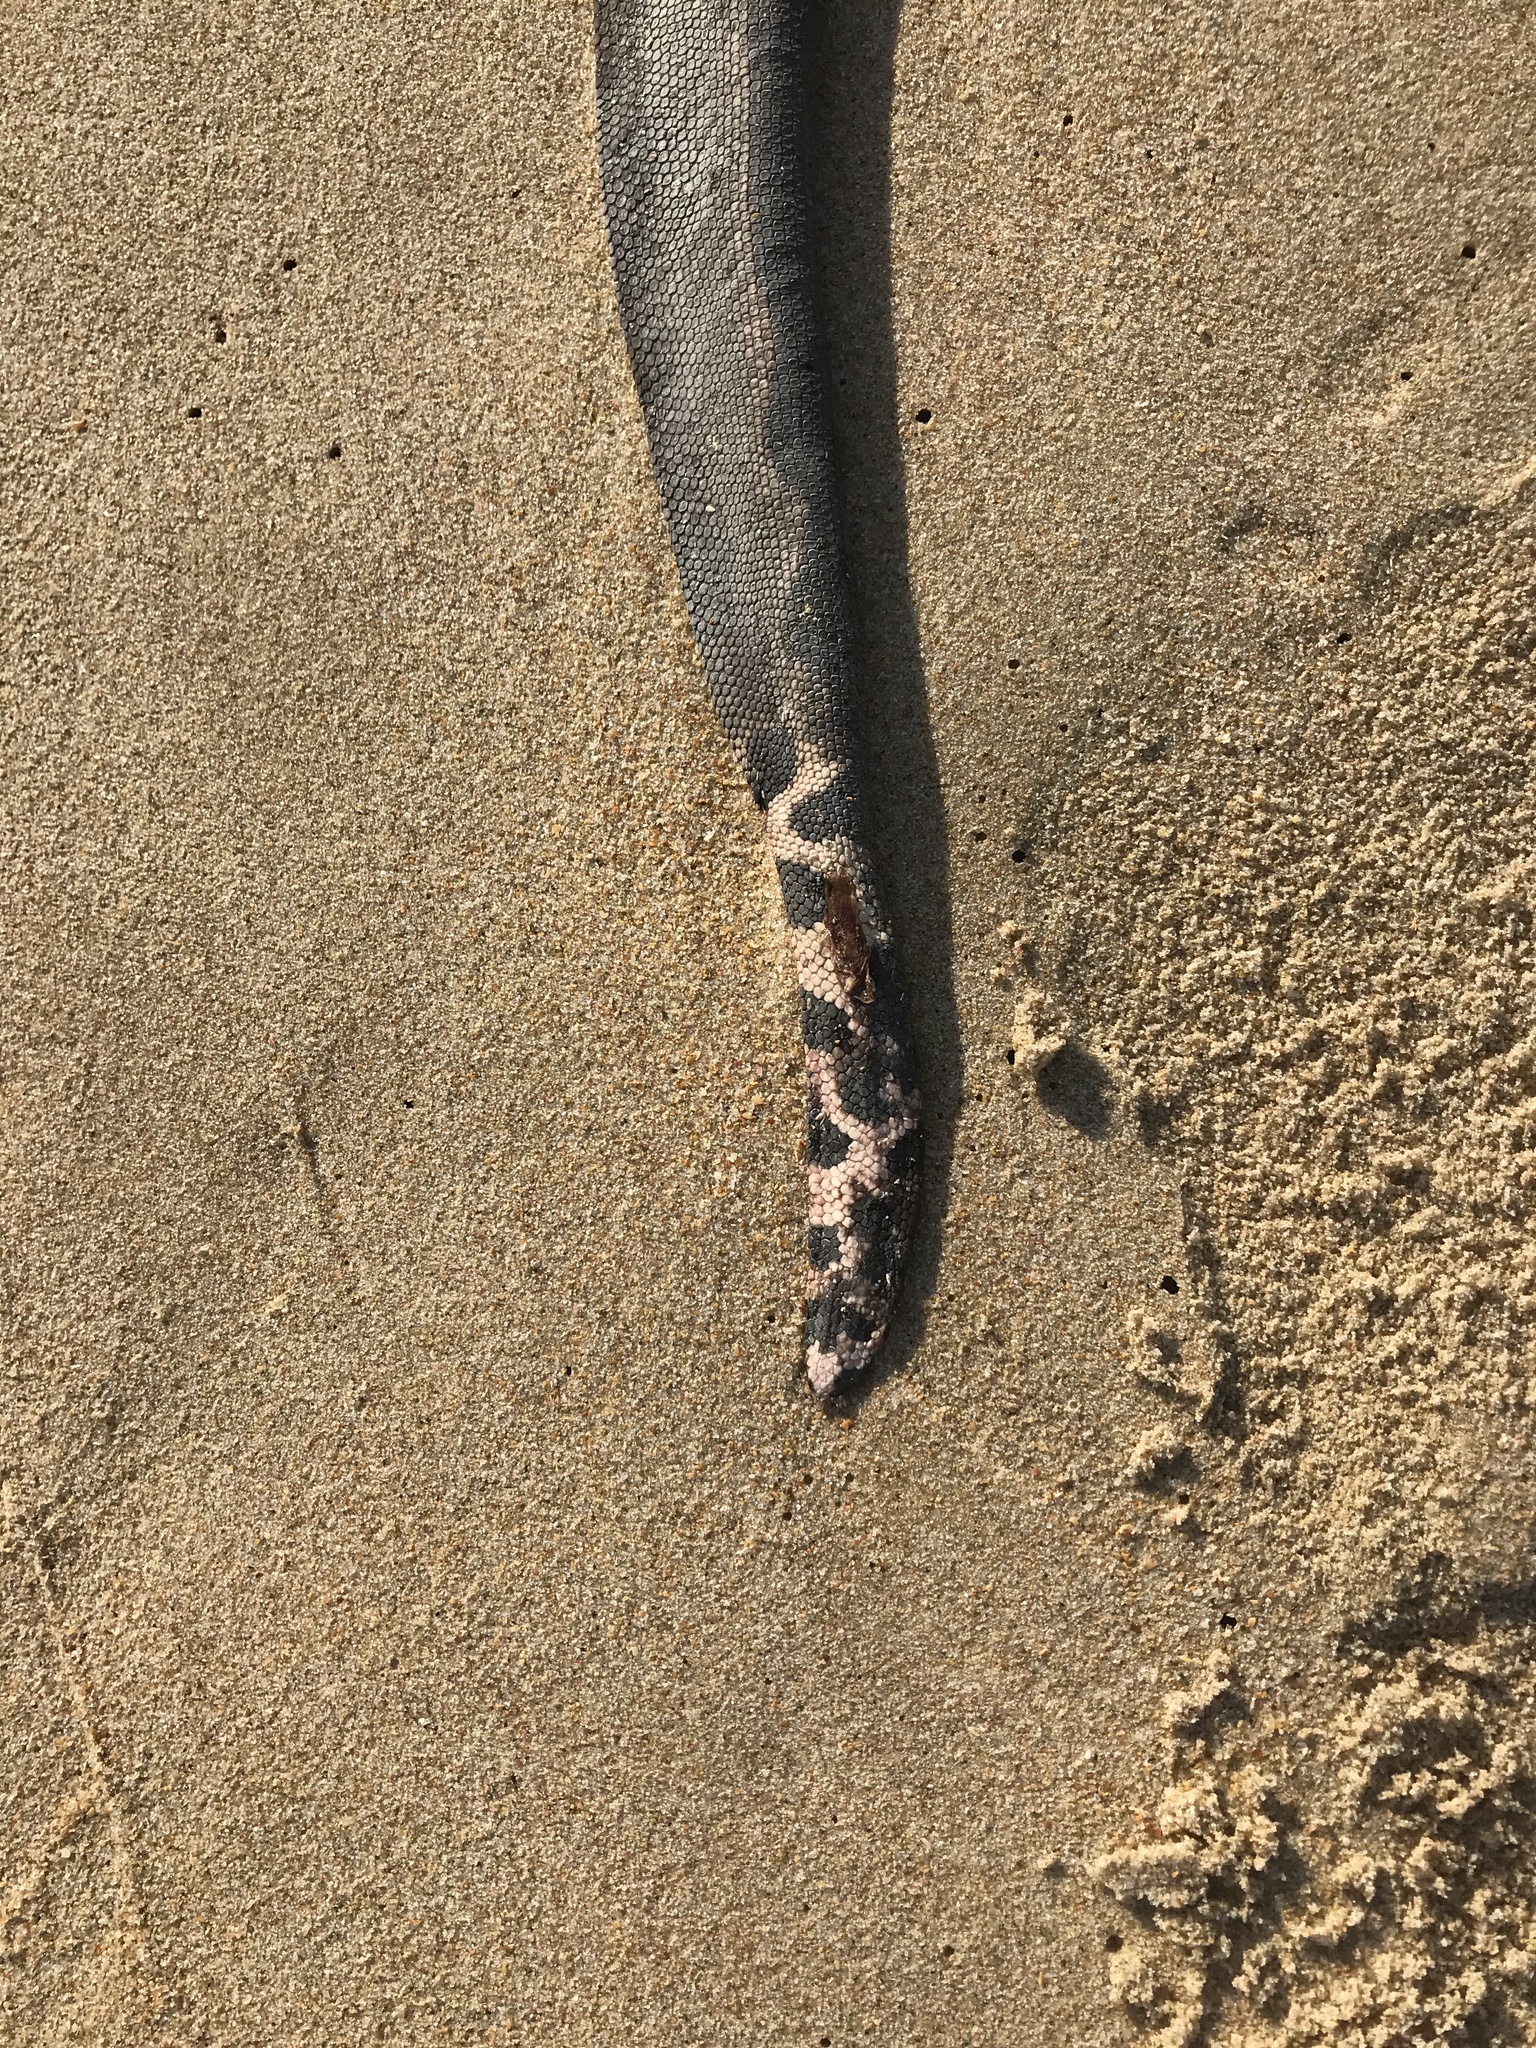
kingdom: Animalia
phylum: Chordata
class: Squamata
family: Elapidae
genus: Hydrophis
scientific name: Hydrophis platurus
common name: Pelagic sea snake
